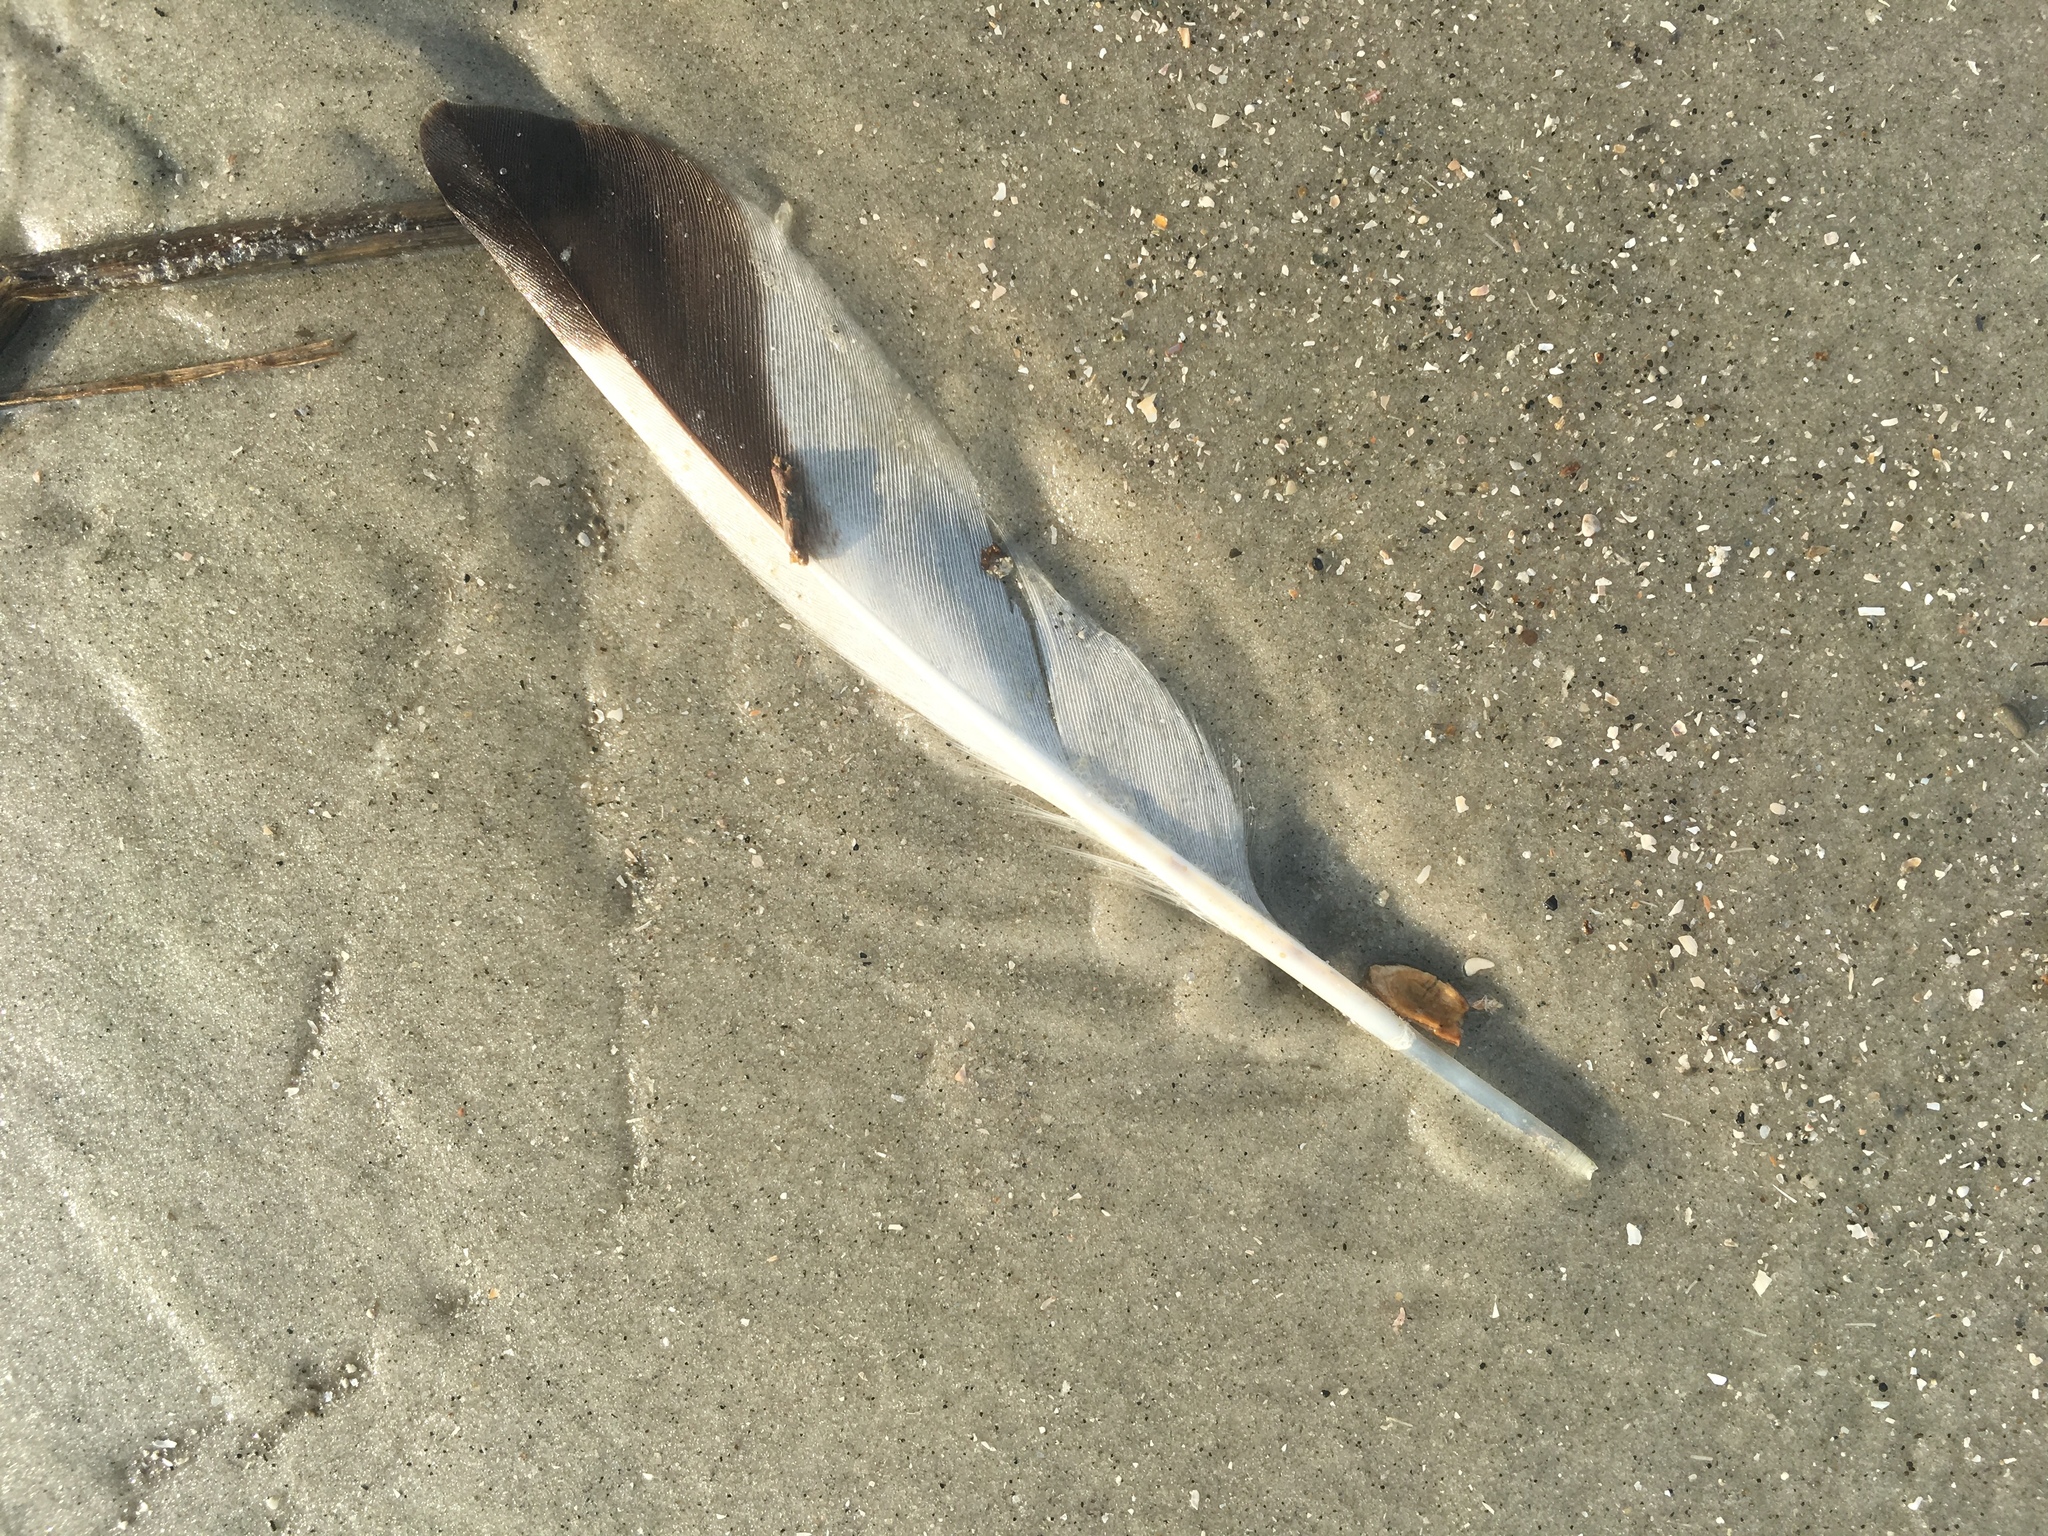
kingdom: Animalia
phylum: Chordata
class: Aves
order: Charadriiformes
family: Charadriidae
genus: Pluvialis
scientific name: Pluvialis squatarola
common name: Grey plover
